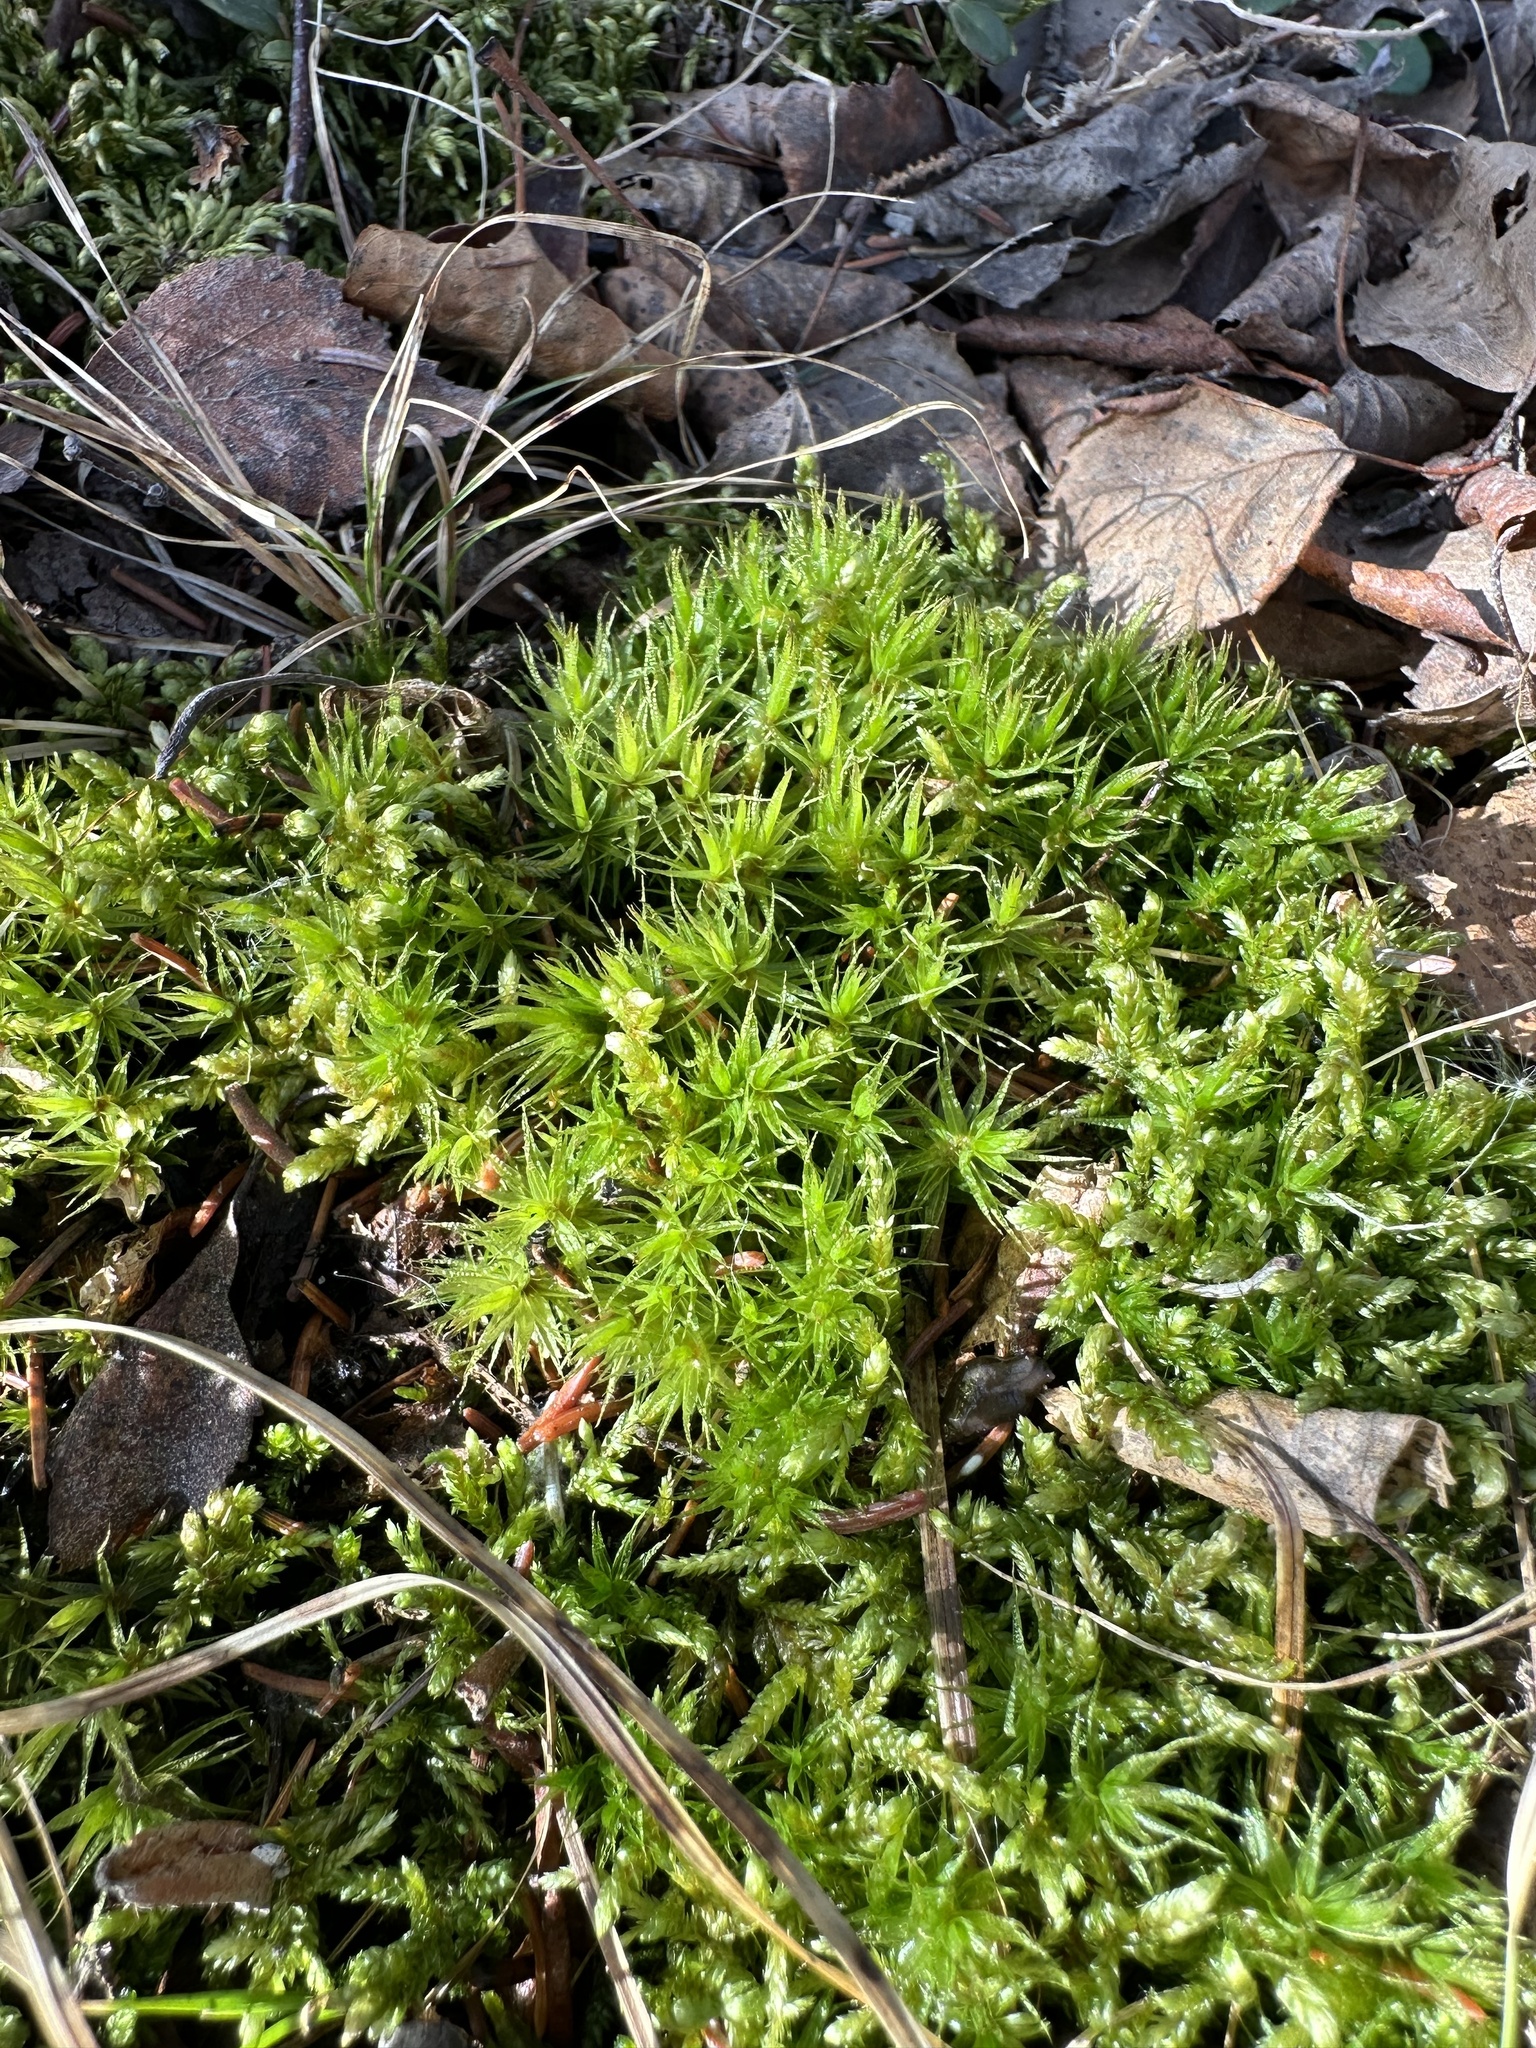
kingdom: Plantae
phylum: Bryophyta
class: Bryopsida
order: Dicranales
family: Dicranaceae
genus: Dicranum
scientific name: Dicranum polysetum
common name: Rugose fork-moss
